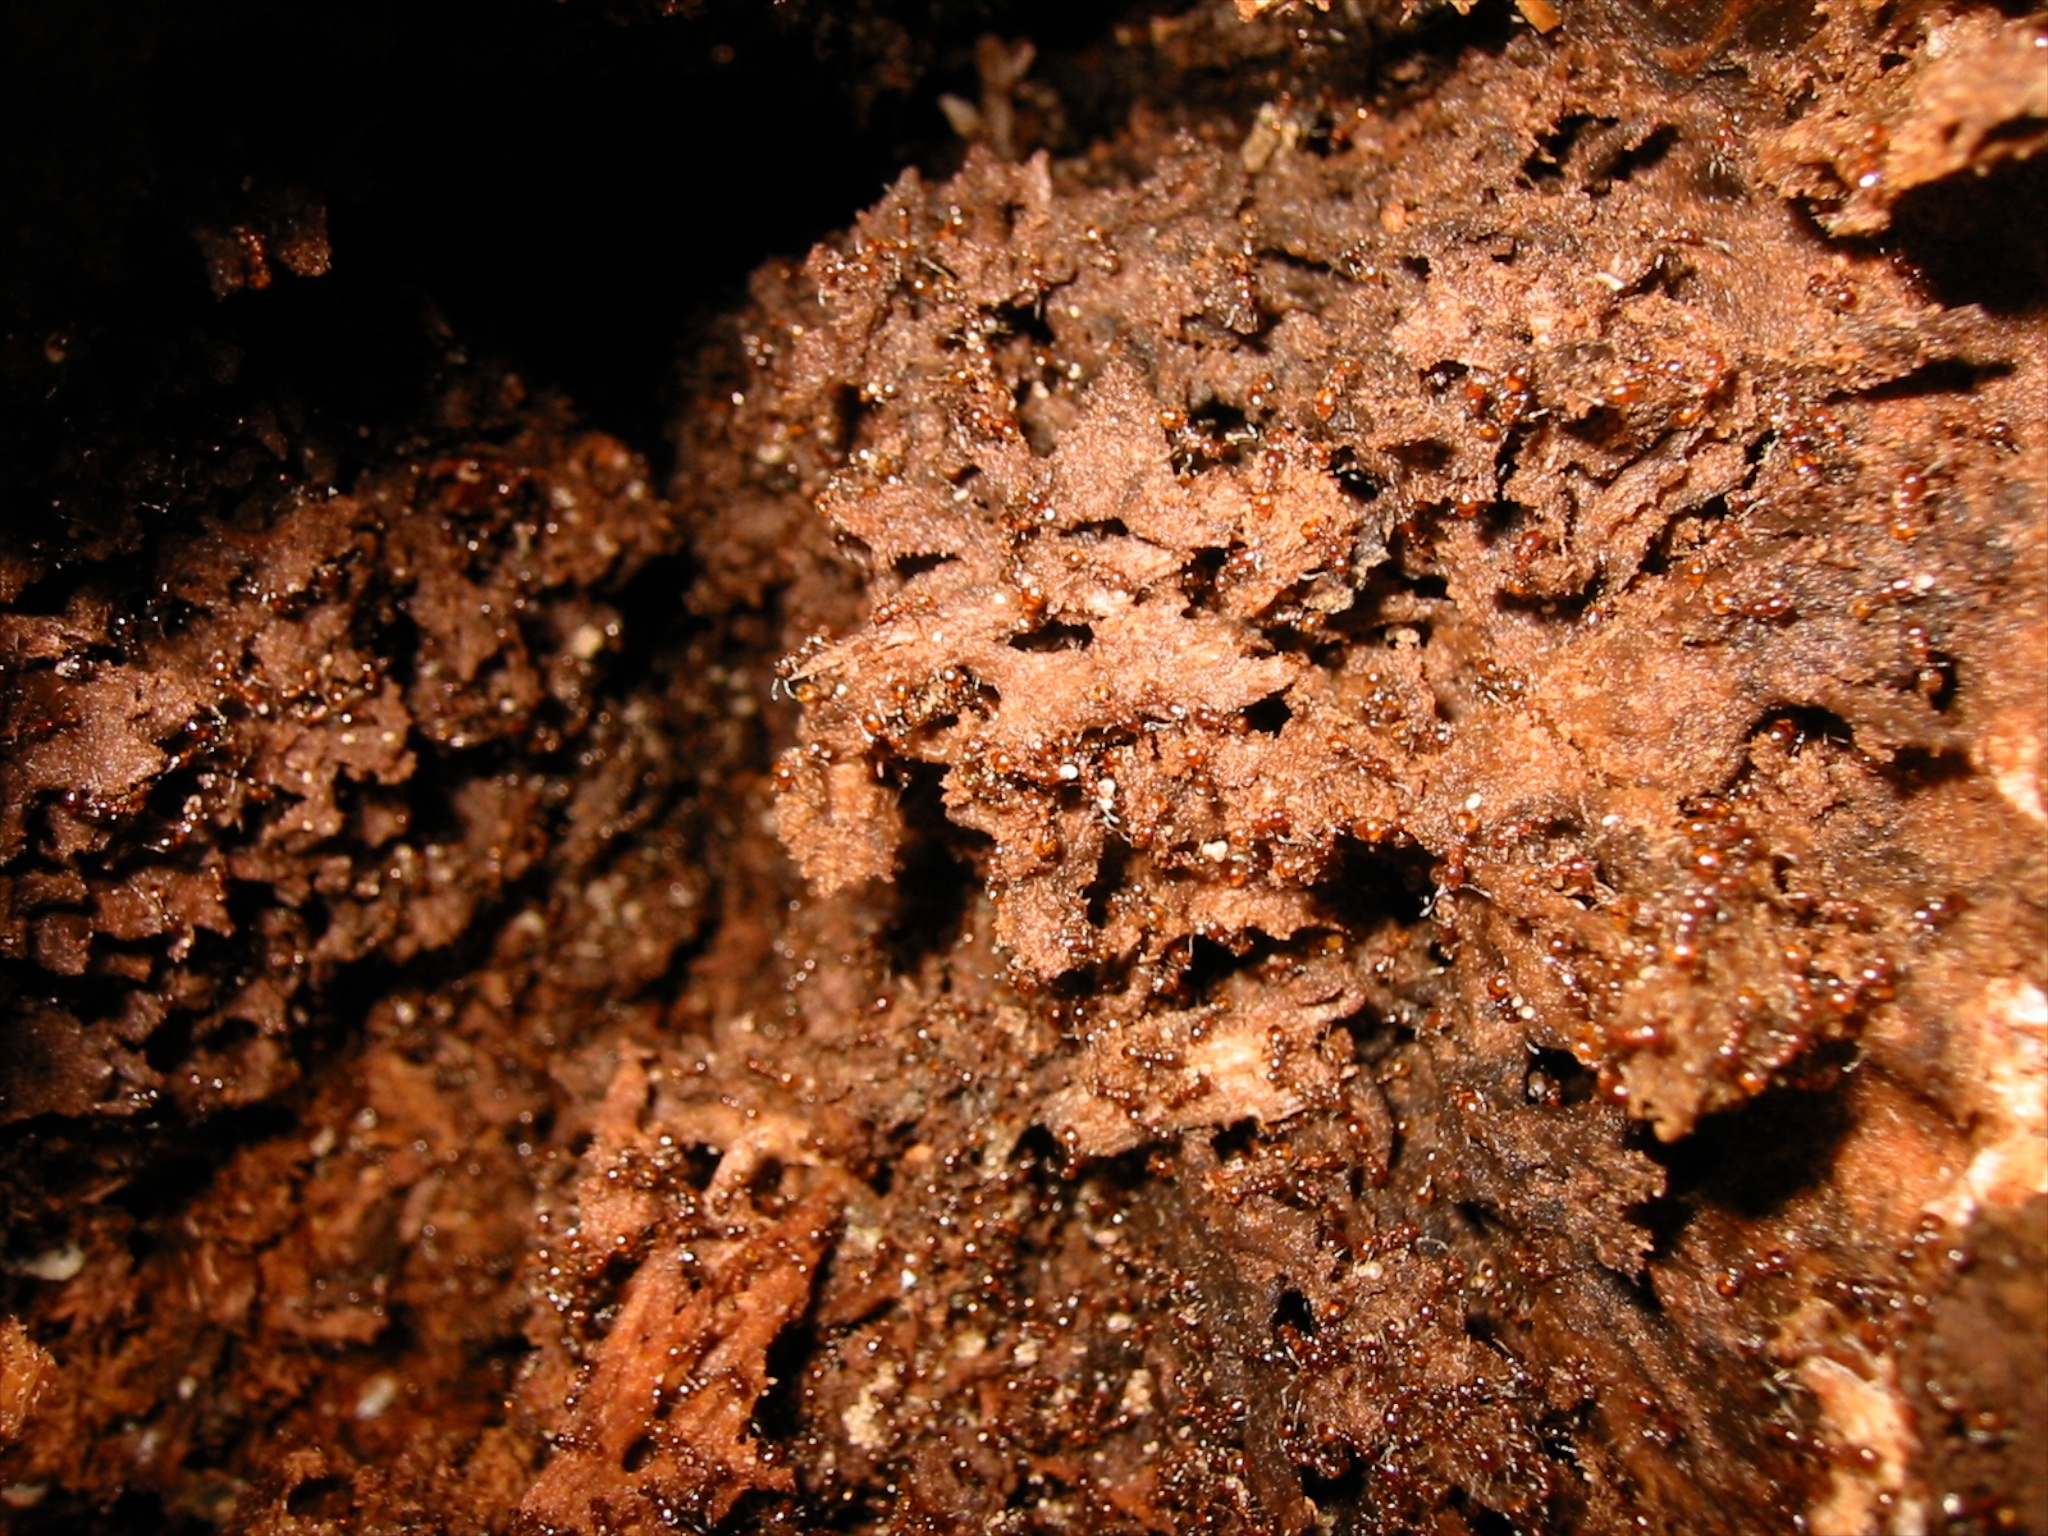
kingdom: Animalia
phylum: Arthropoda
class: Insecta
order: Hymenoptera
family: Formicidae
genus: Monomorium
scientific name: Monomorium antarcticum
